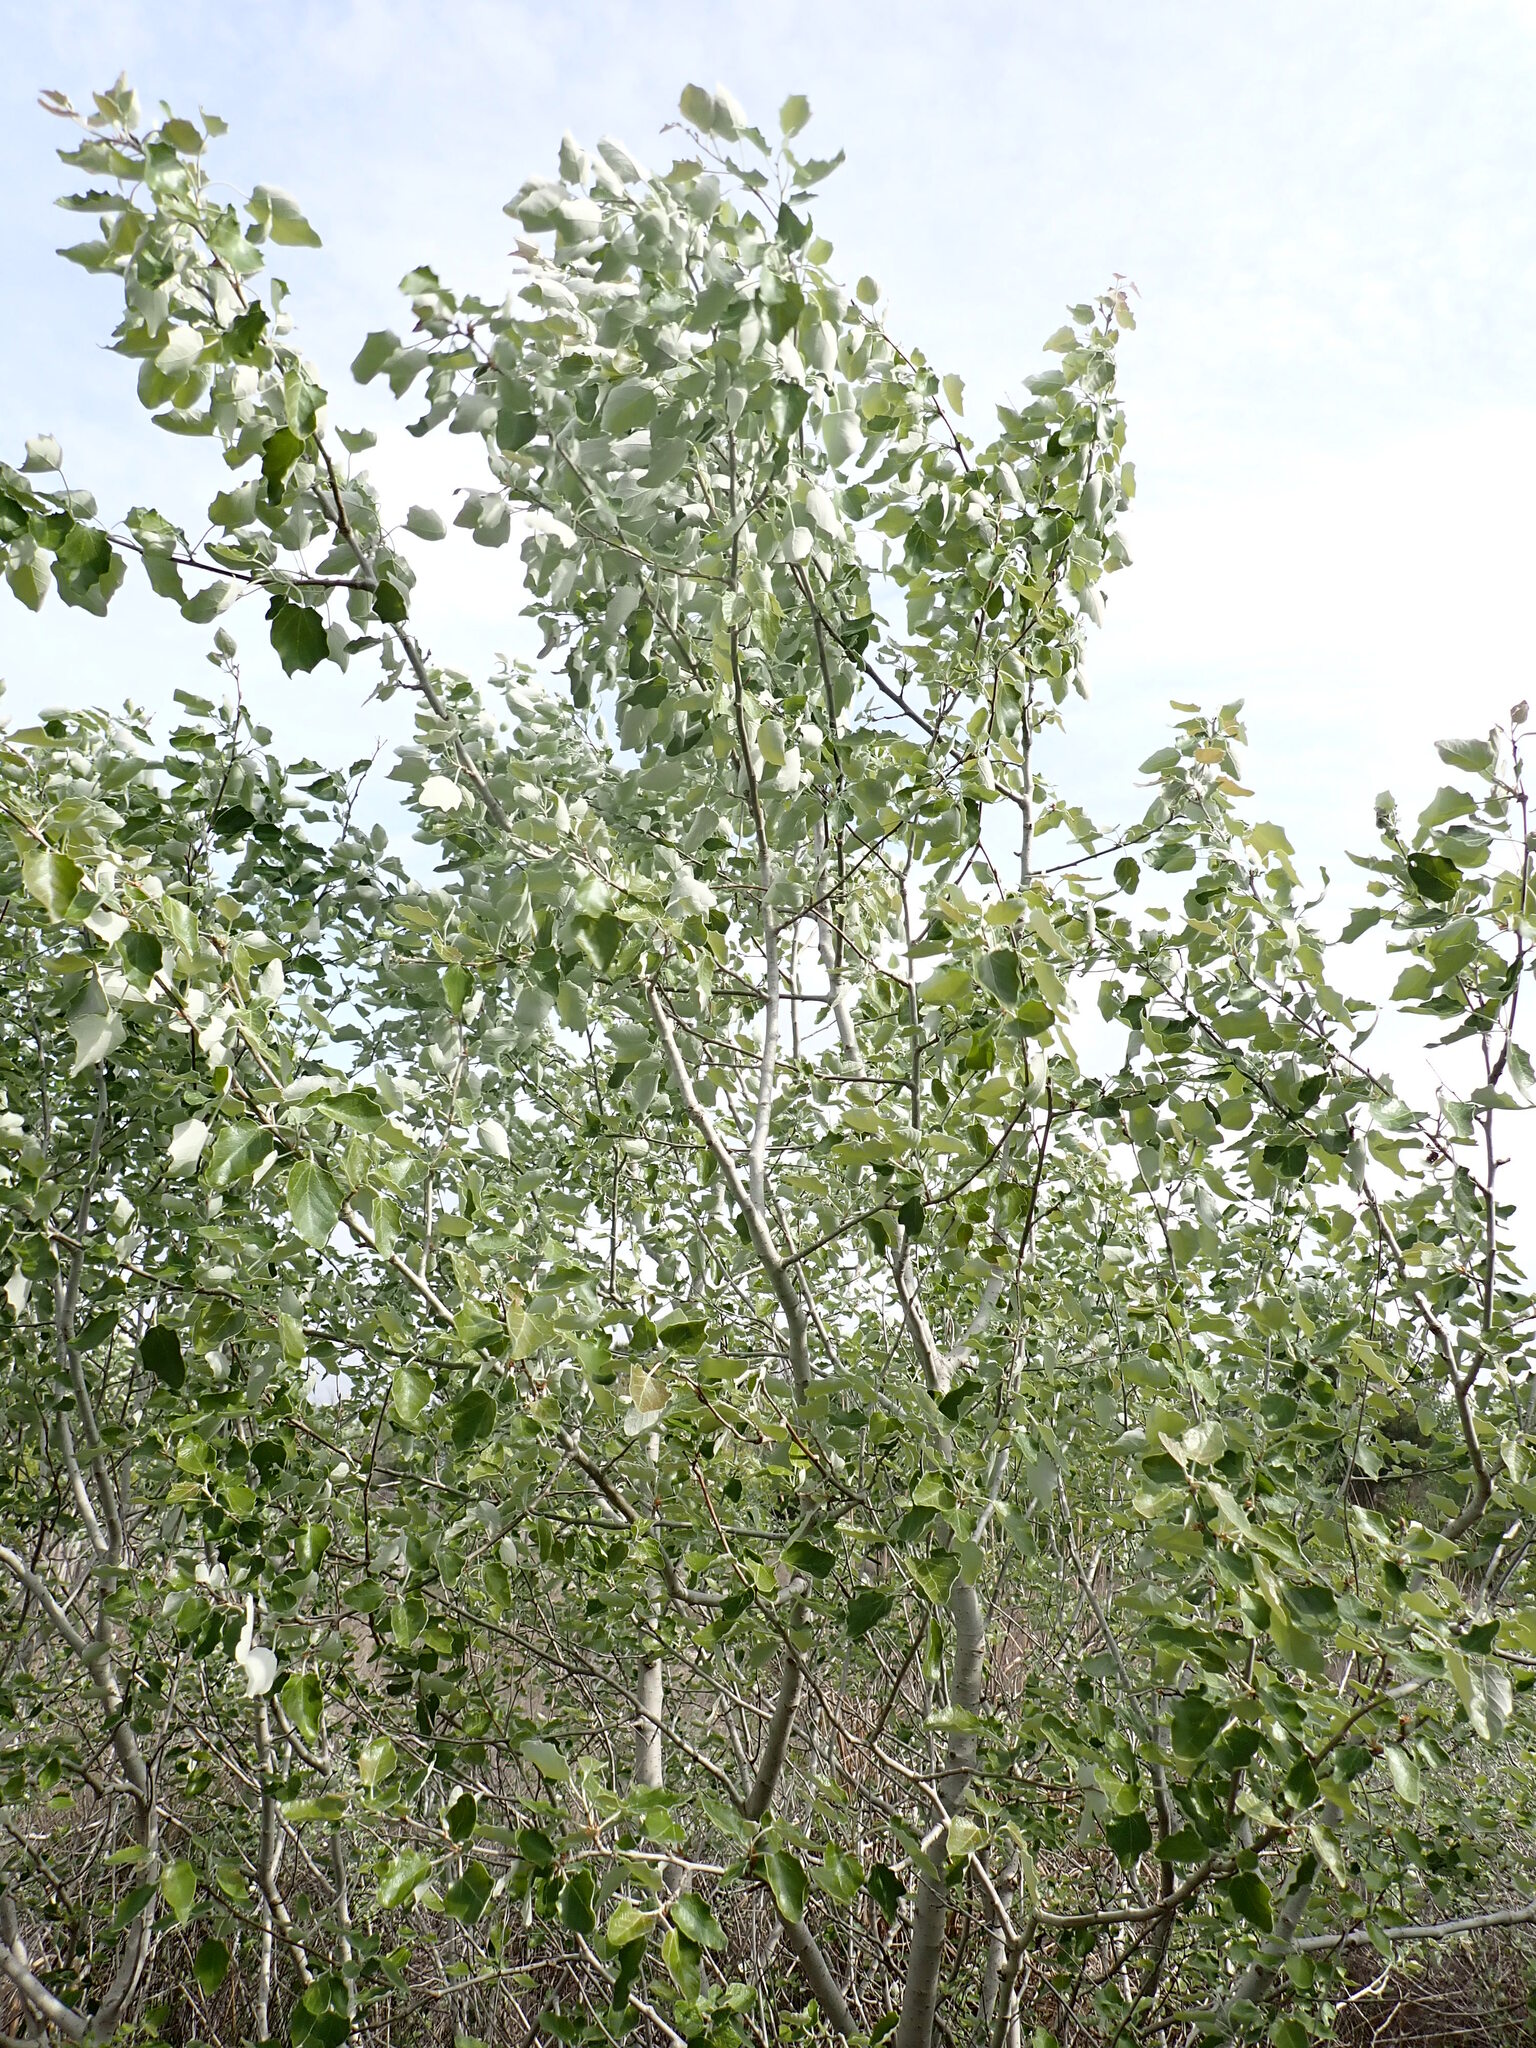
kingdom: Plantae
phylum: Tracheophyta
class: Magnoliopsida
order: Malpighiales
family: Salicaceae
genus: Populus
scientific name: Populus alba
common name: White poplar
